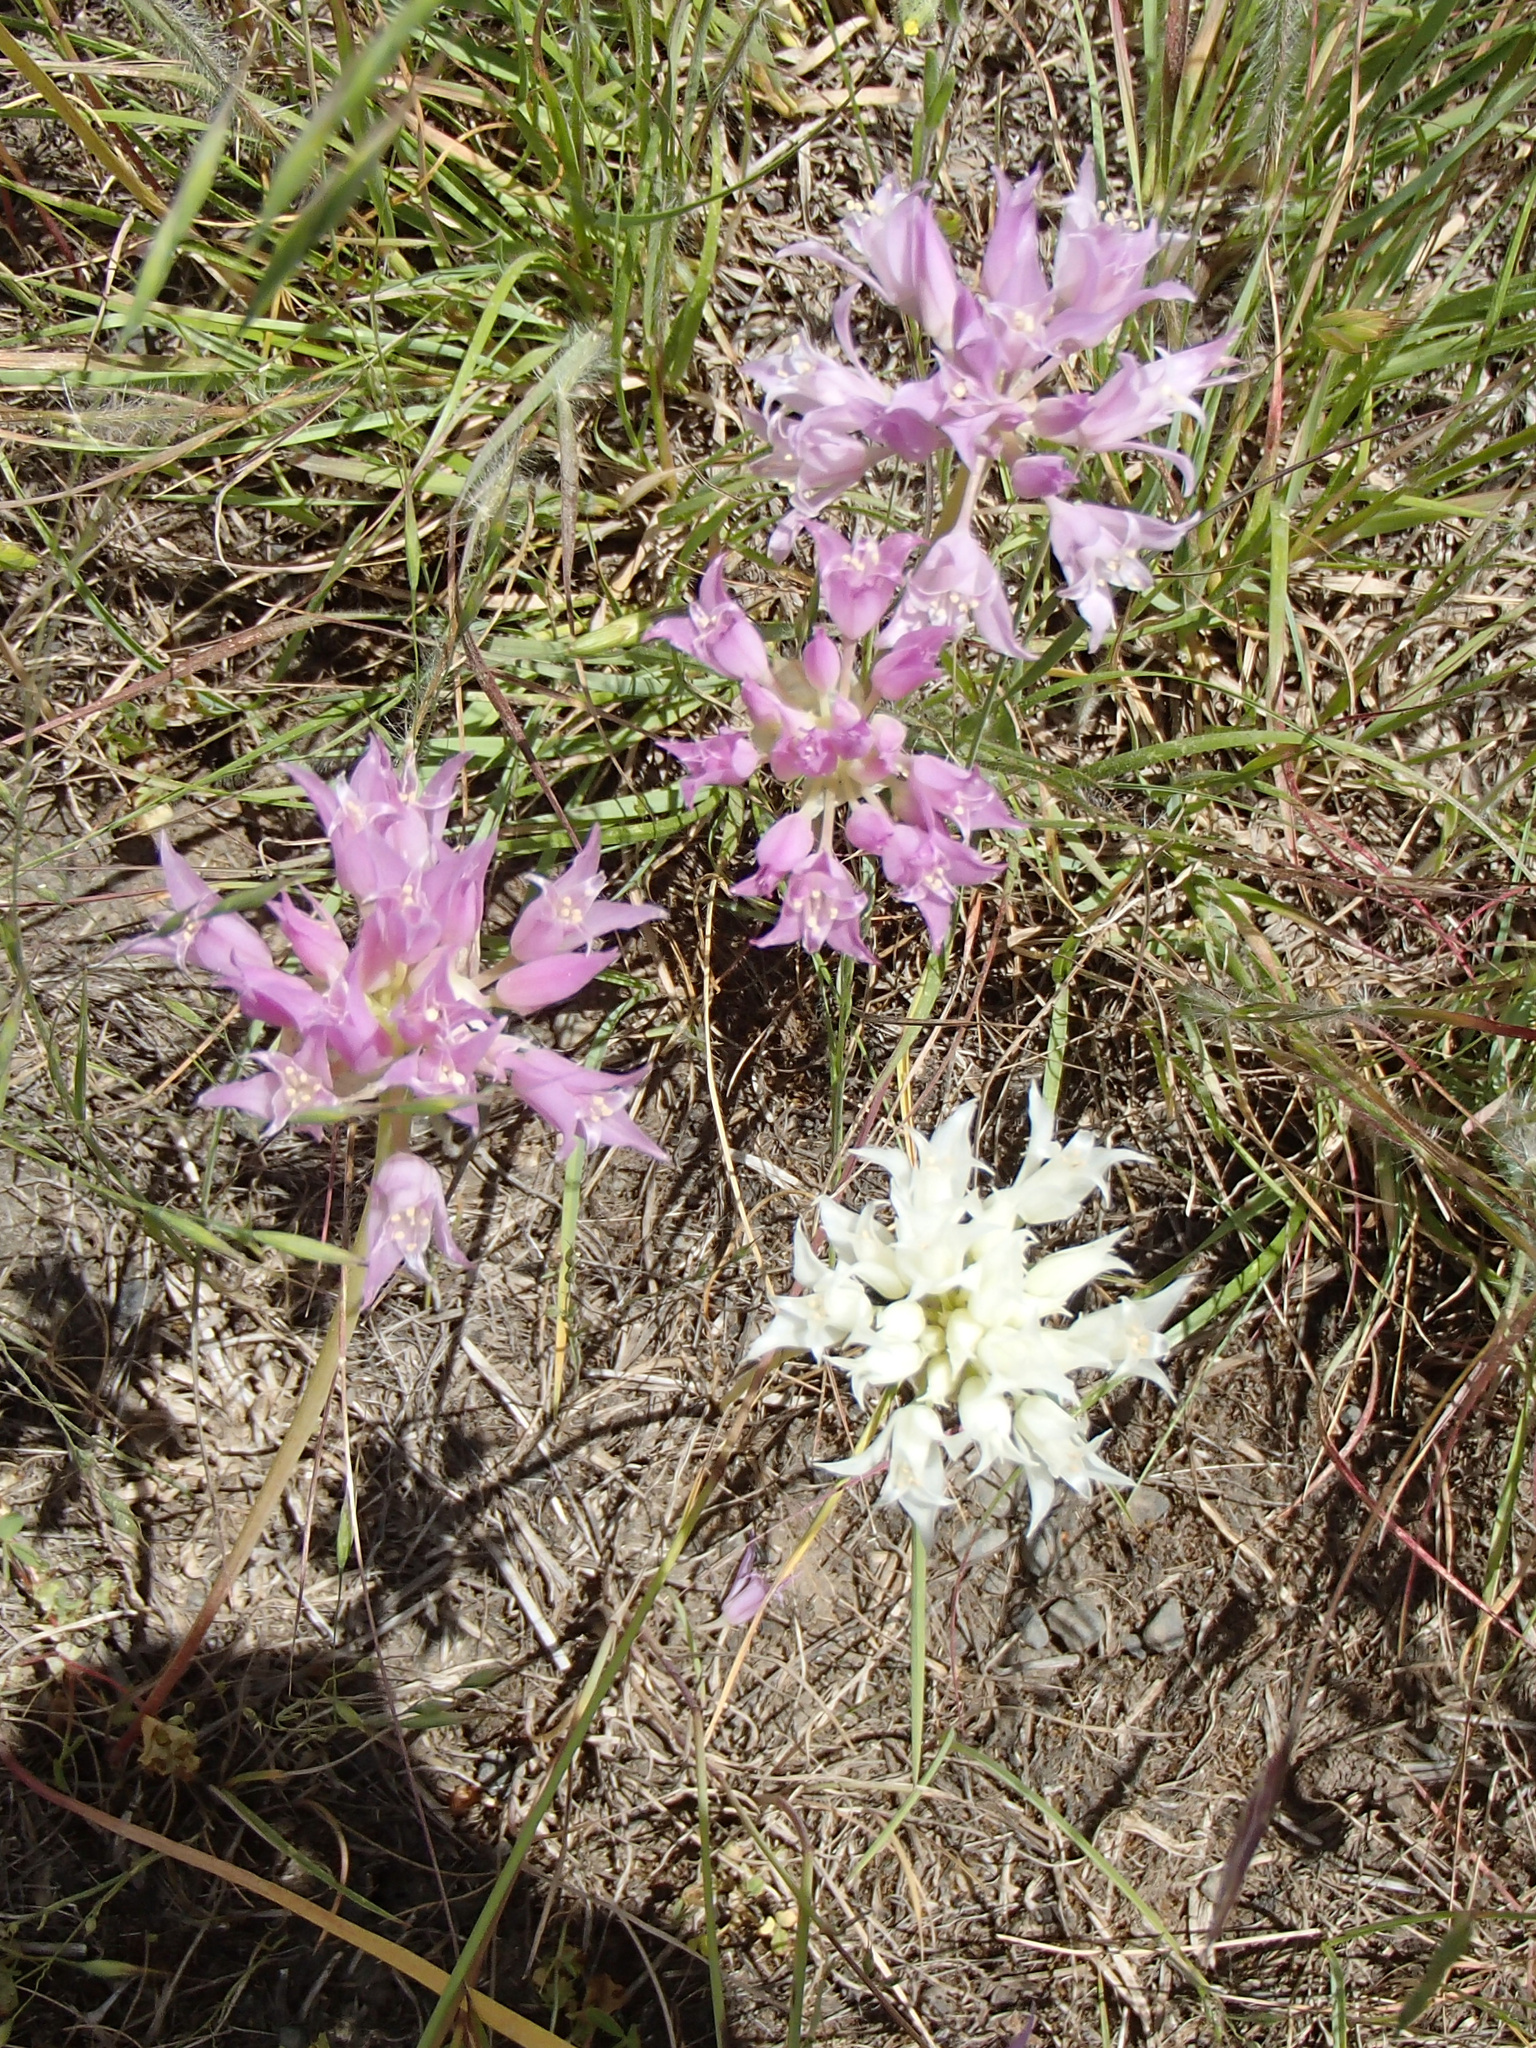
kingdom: Plantae
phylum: Tracheophyta
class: Liliopsida
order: Asparagales
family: Amaryllidaceae
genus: Allium
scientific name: Allium acuminatum
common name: Hooker's onion
